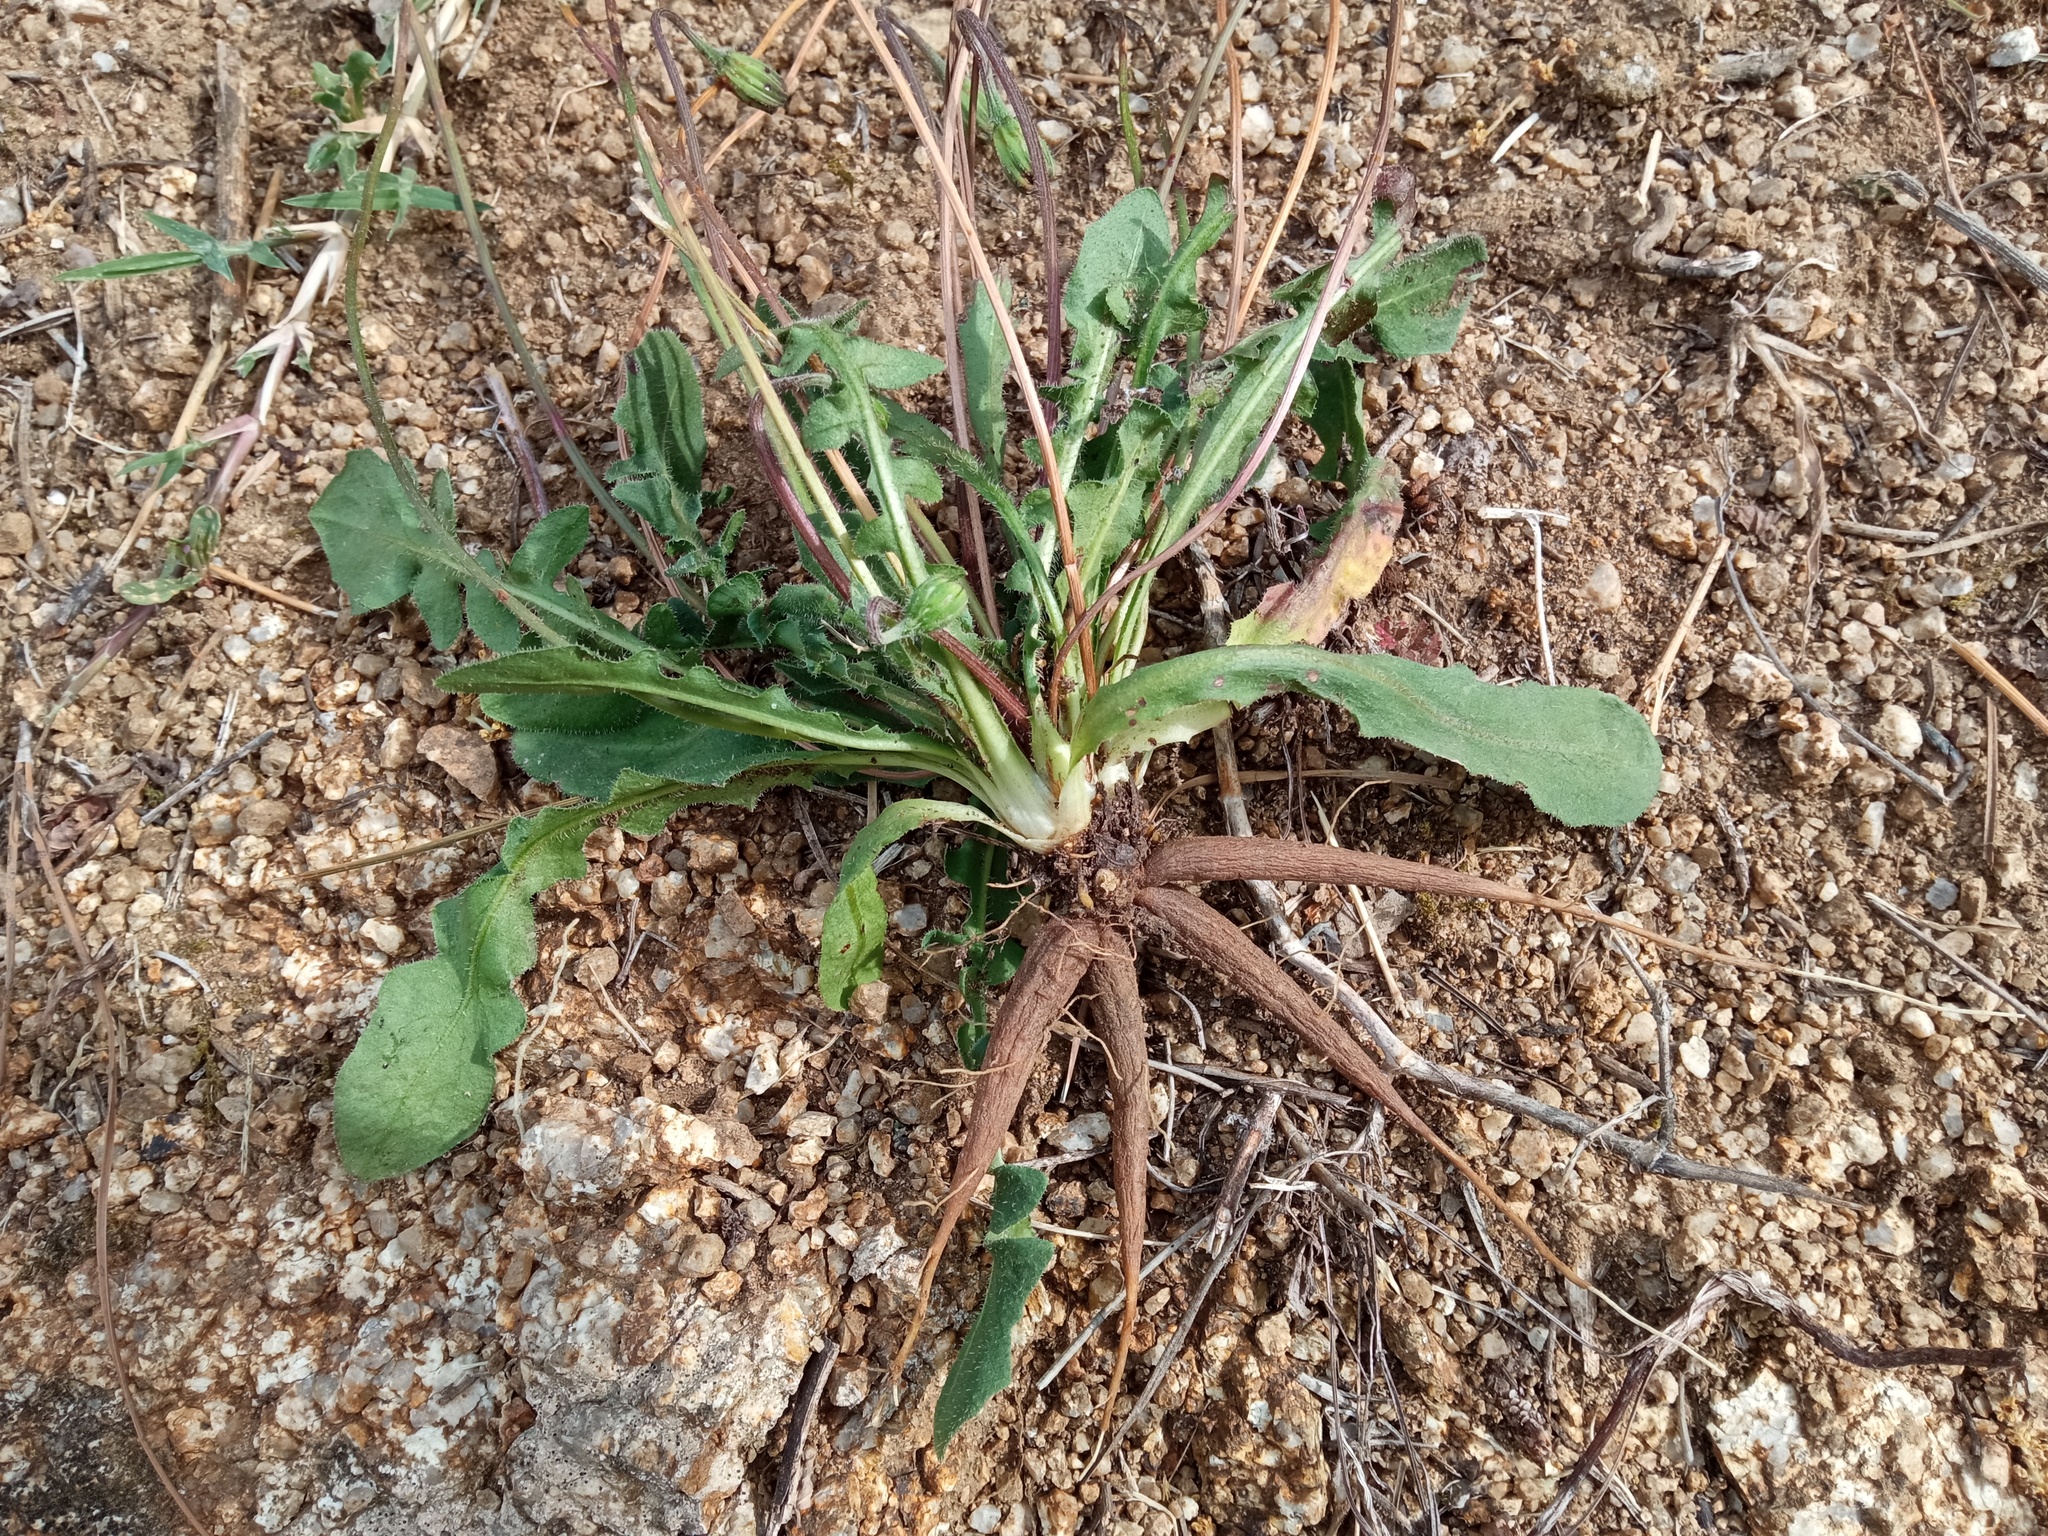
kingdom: Plantae
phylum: Tracheophyta
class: Magnoliopsida
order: Asterales
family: Asteraceae
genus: Leontodon
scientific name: Leontodon tuberosus
